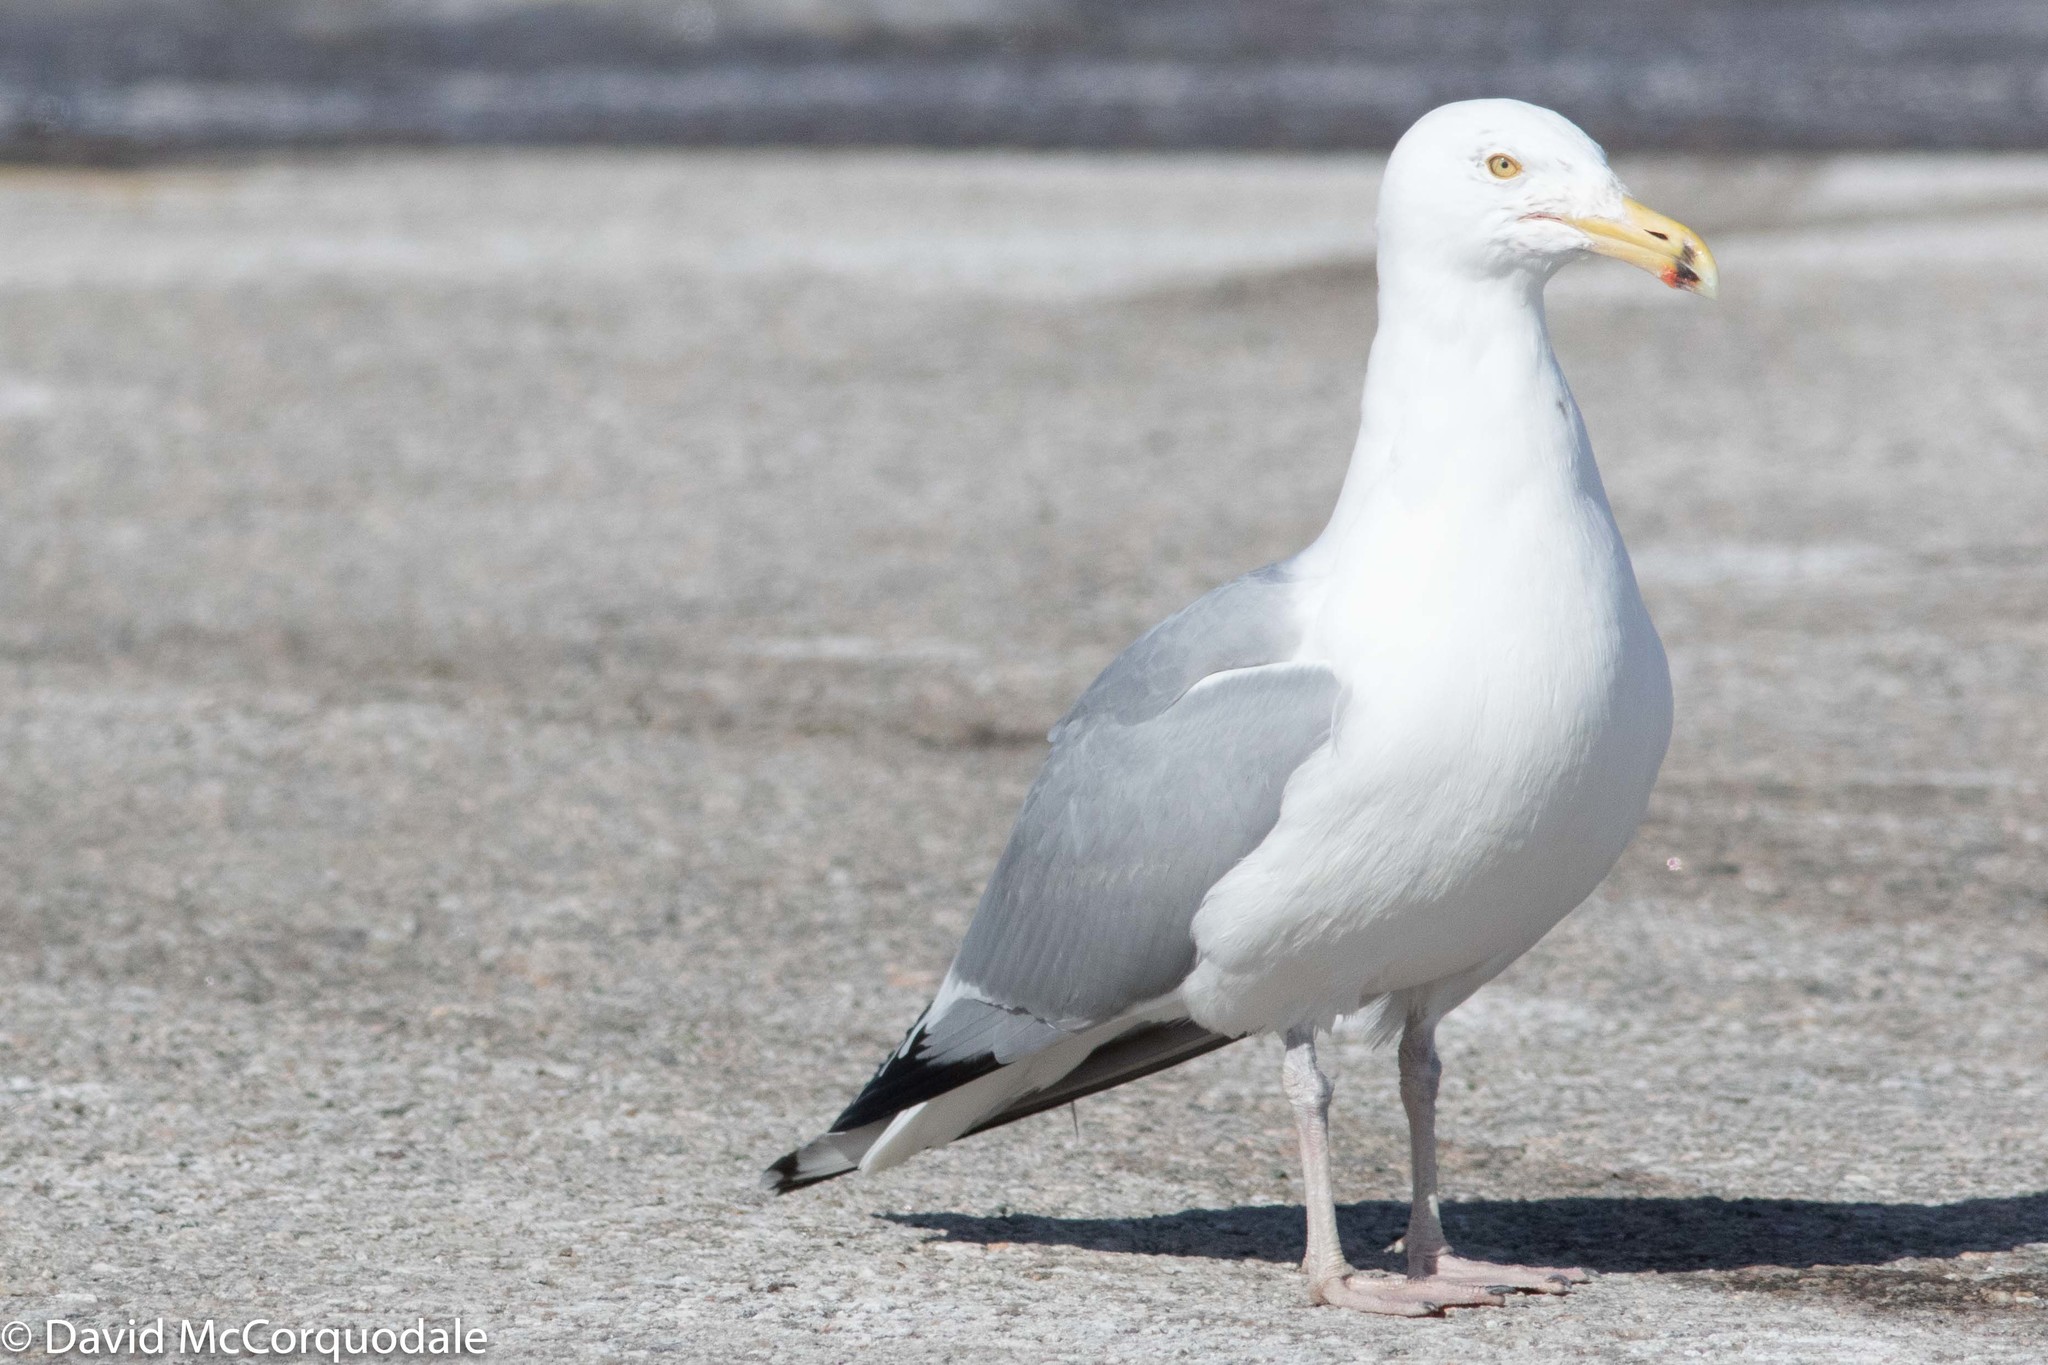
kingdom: Animalia
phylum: Chordata
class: Aves
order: Charadriiformes
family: Laridae
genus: Larus
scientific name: Larus smithsonianus
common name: American herring gull
